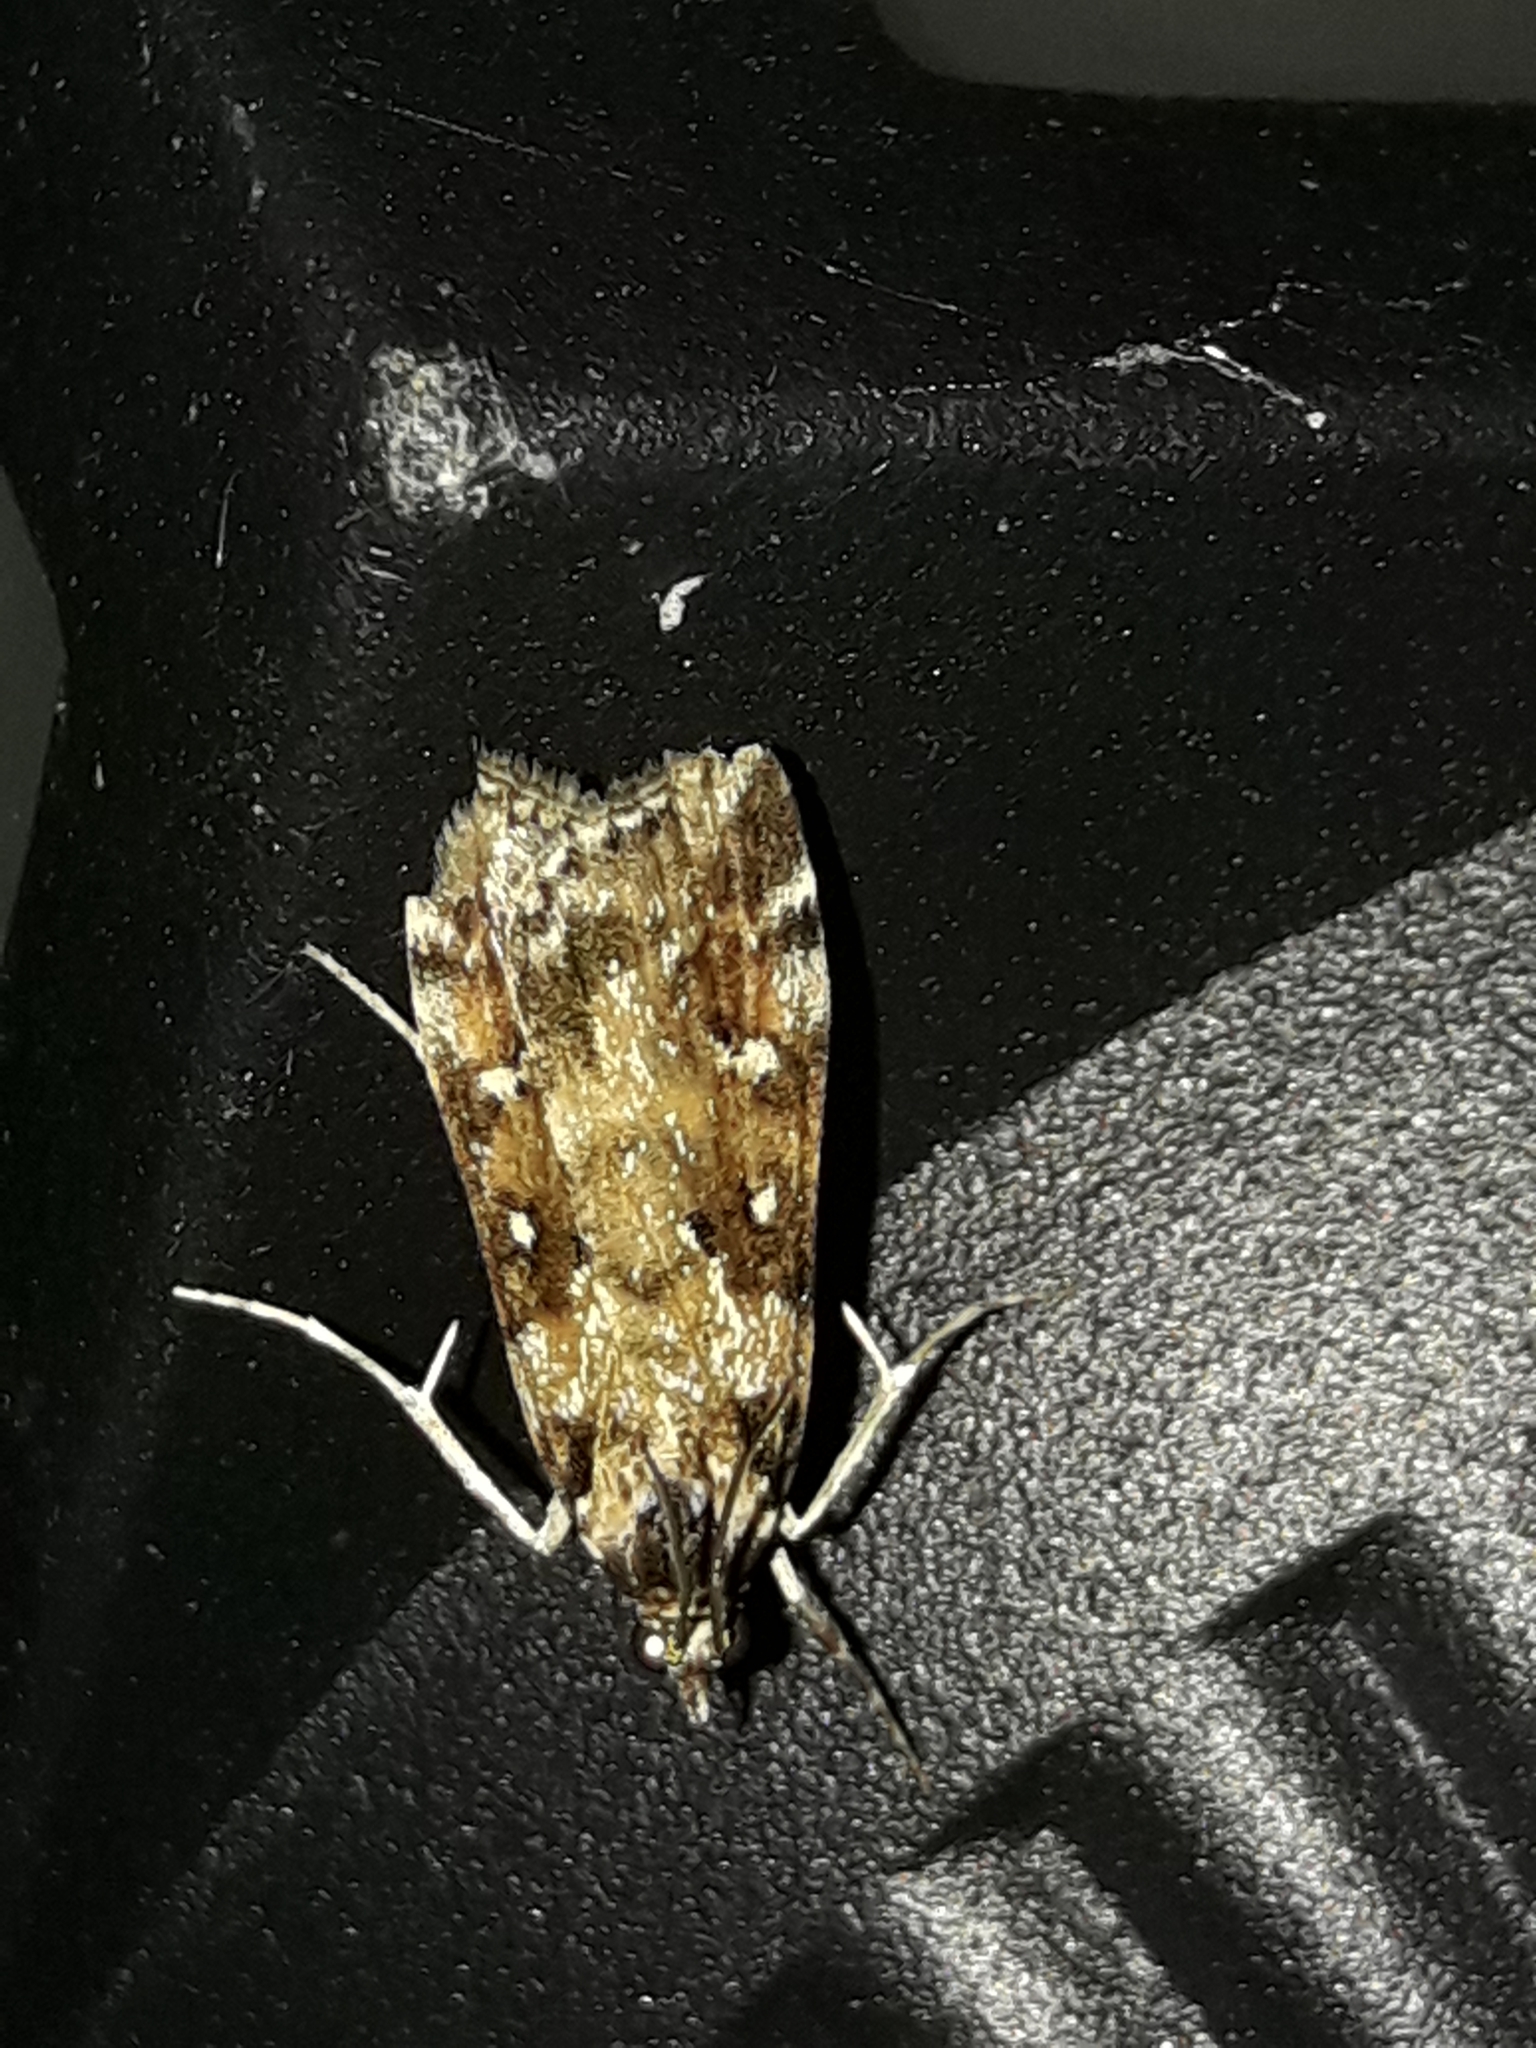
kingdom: Animalia
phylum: Arthropoda
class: Insecta
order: Lepidoptera
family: Crambidae
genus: Eudonia
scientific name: Eudonia diphtheralis
